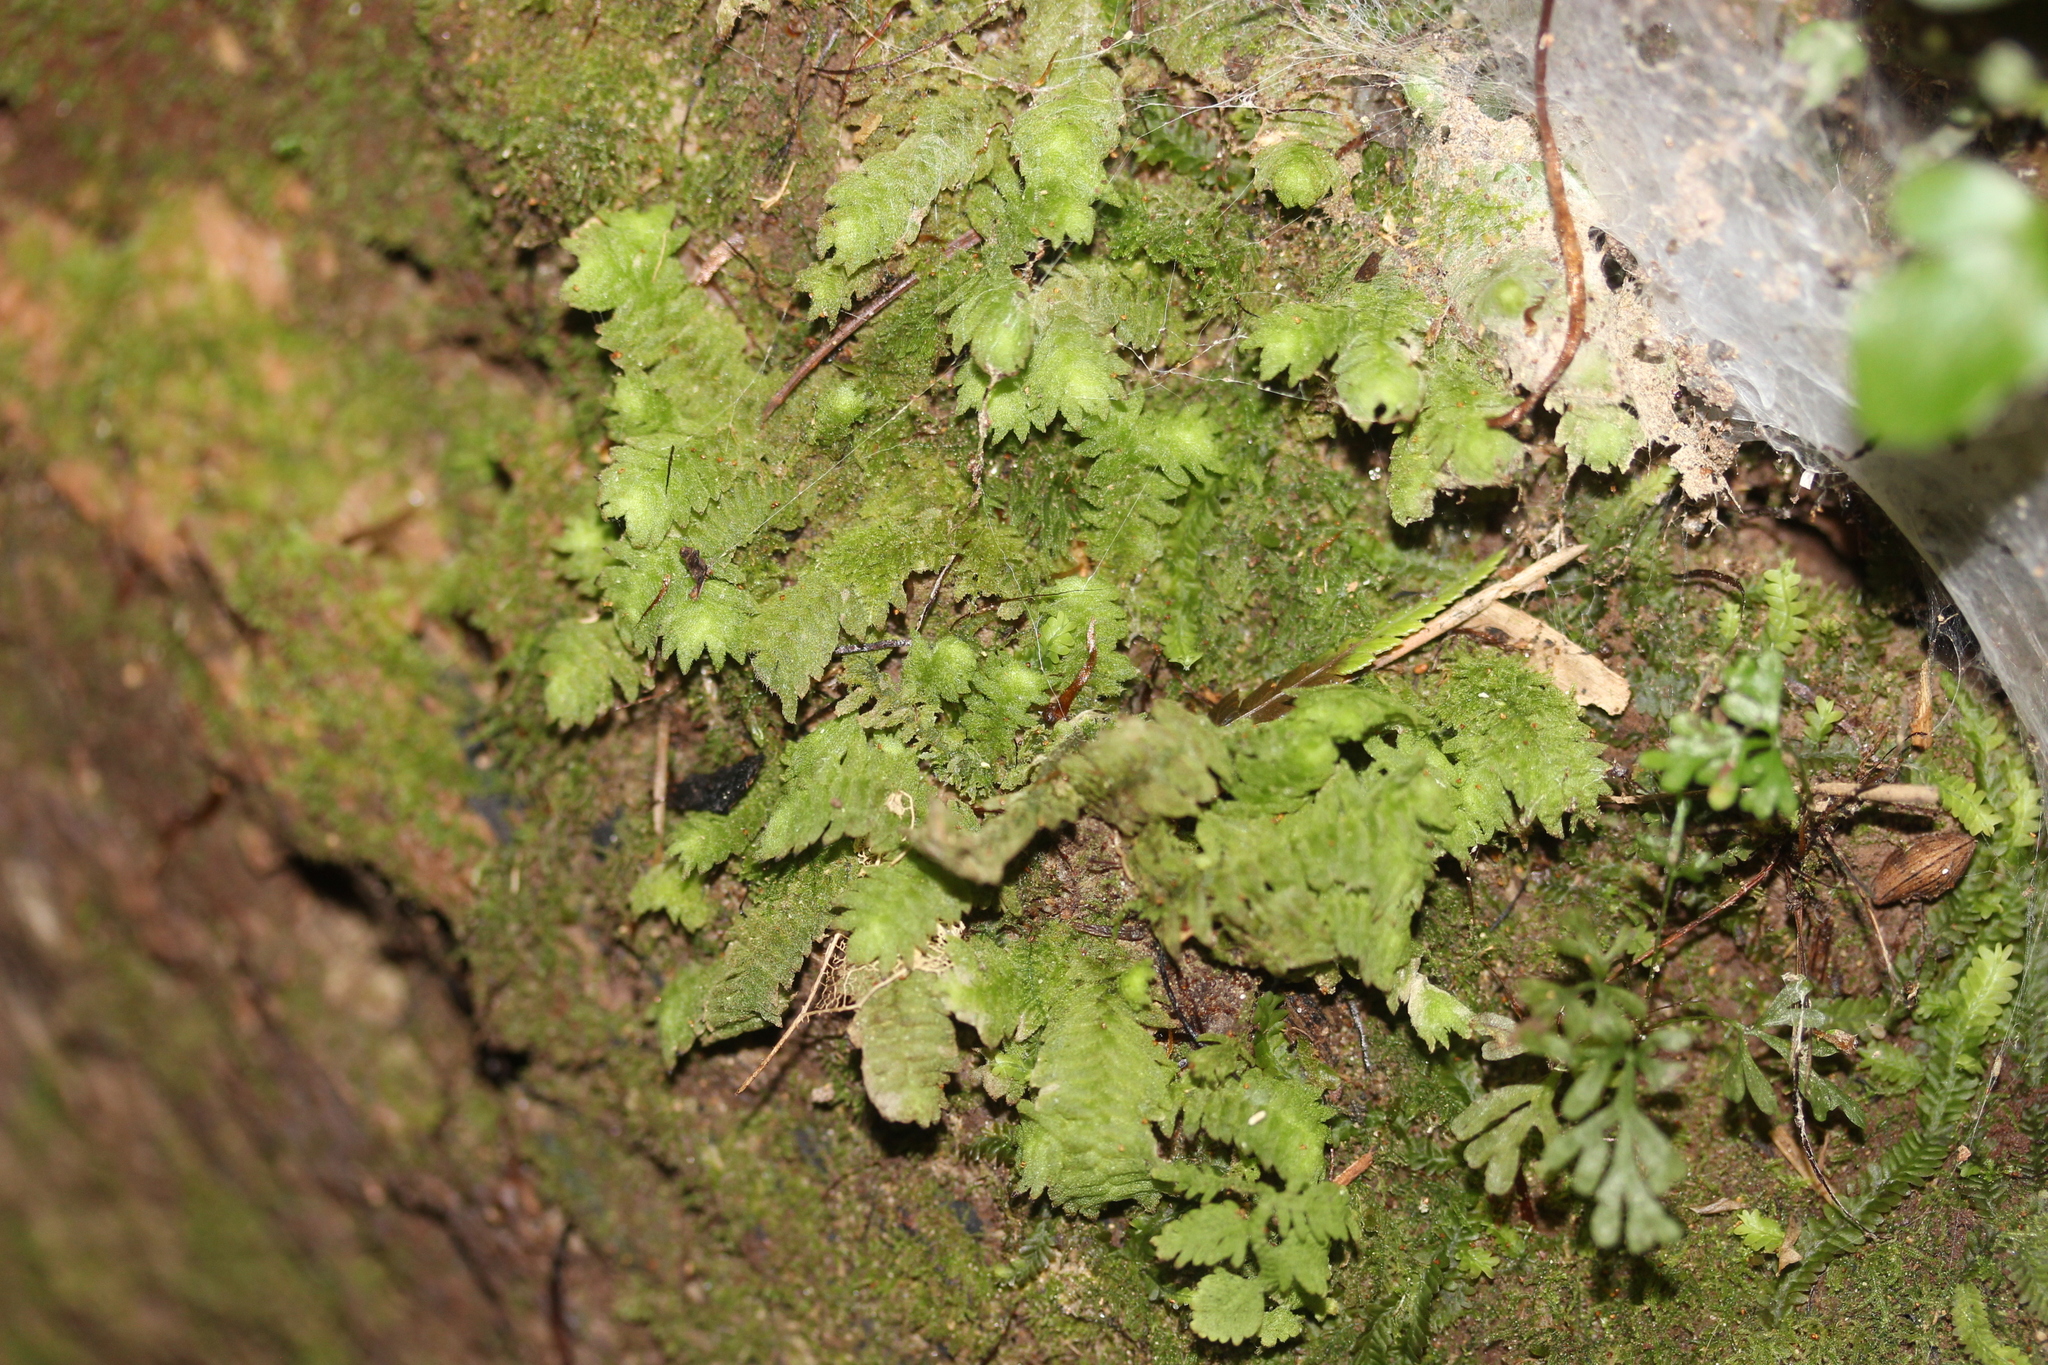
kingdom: Plantae
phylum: Marchantiophyta
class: Jungermanniopsida
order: Jungermanniales
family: Schistochilaceae
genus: Schistochila
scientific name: Schistochila glaucescens
